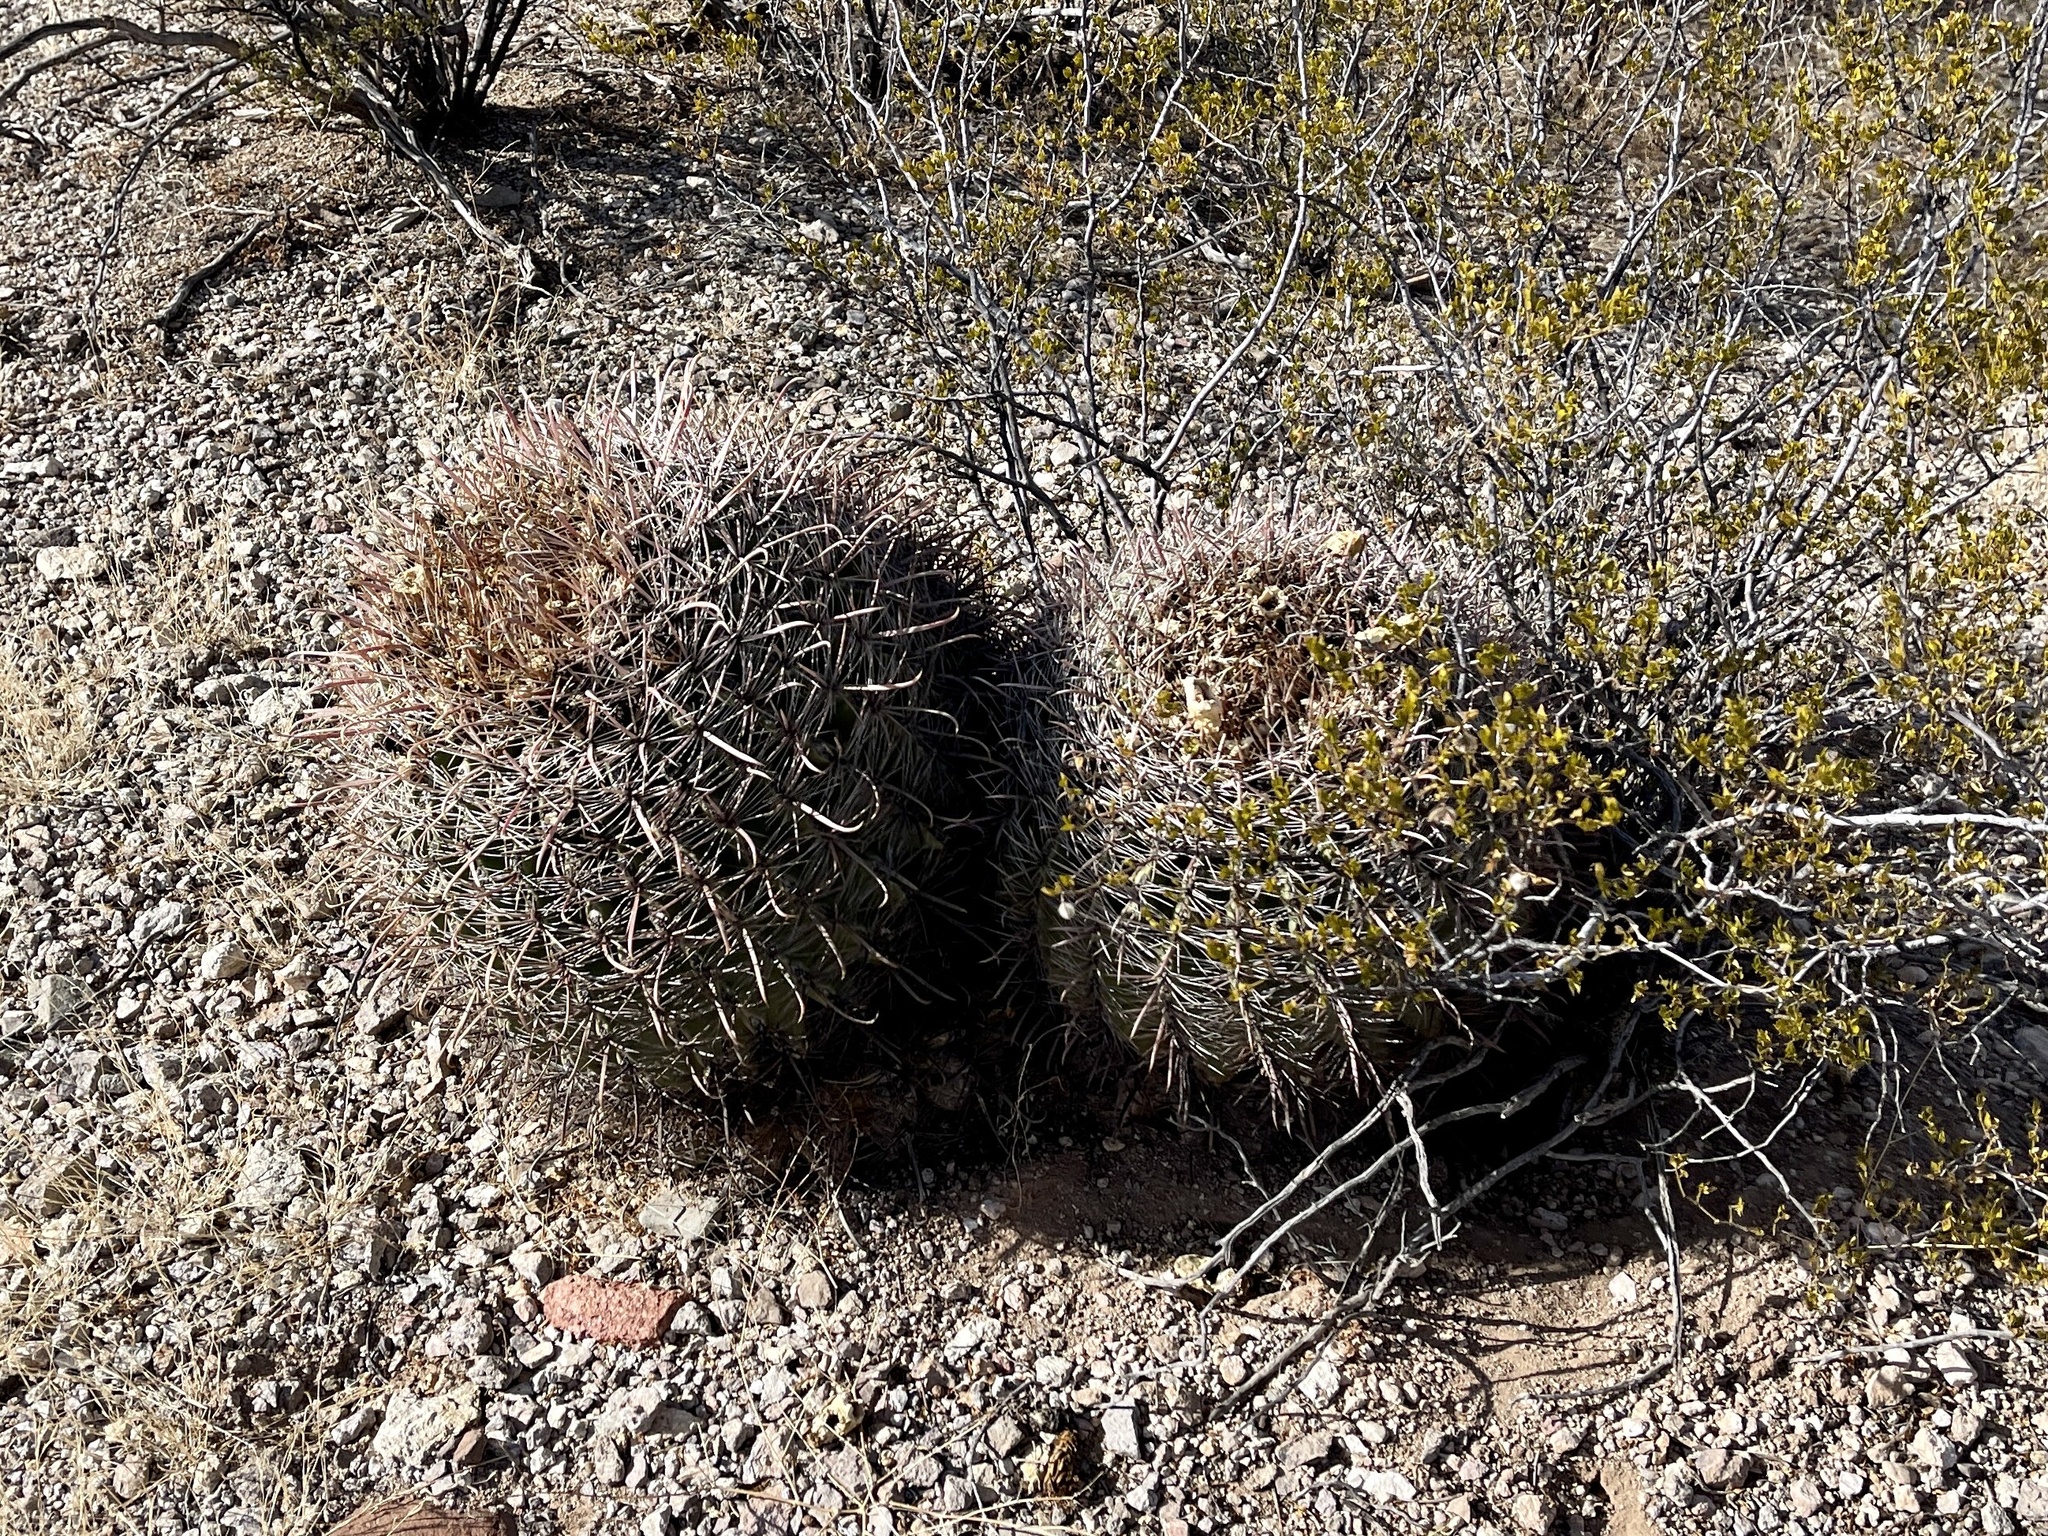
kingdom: Plantae
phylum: Tracheophyta
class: Magnoliopsida
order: Caryophyllales
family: Cactaceae
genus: Ferocactus
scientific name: Ferocactus wislizeni
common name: Candy barrel cactus
